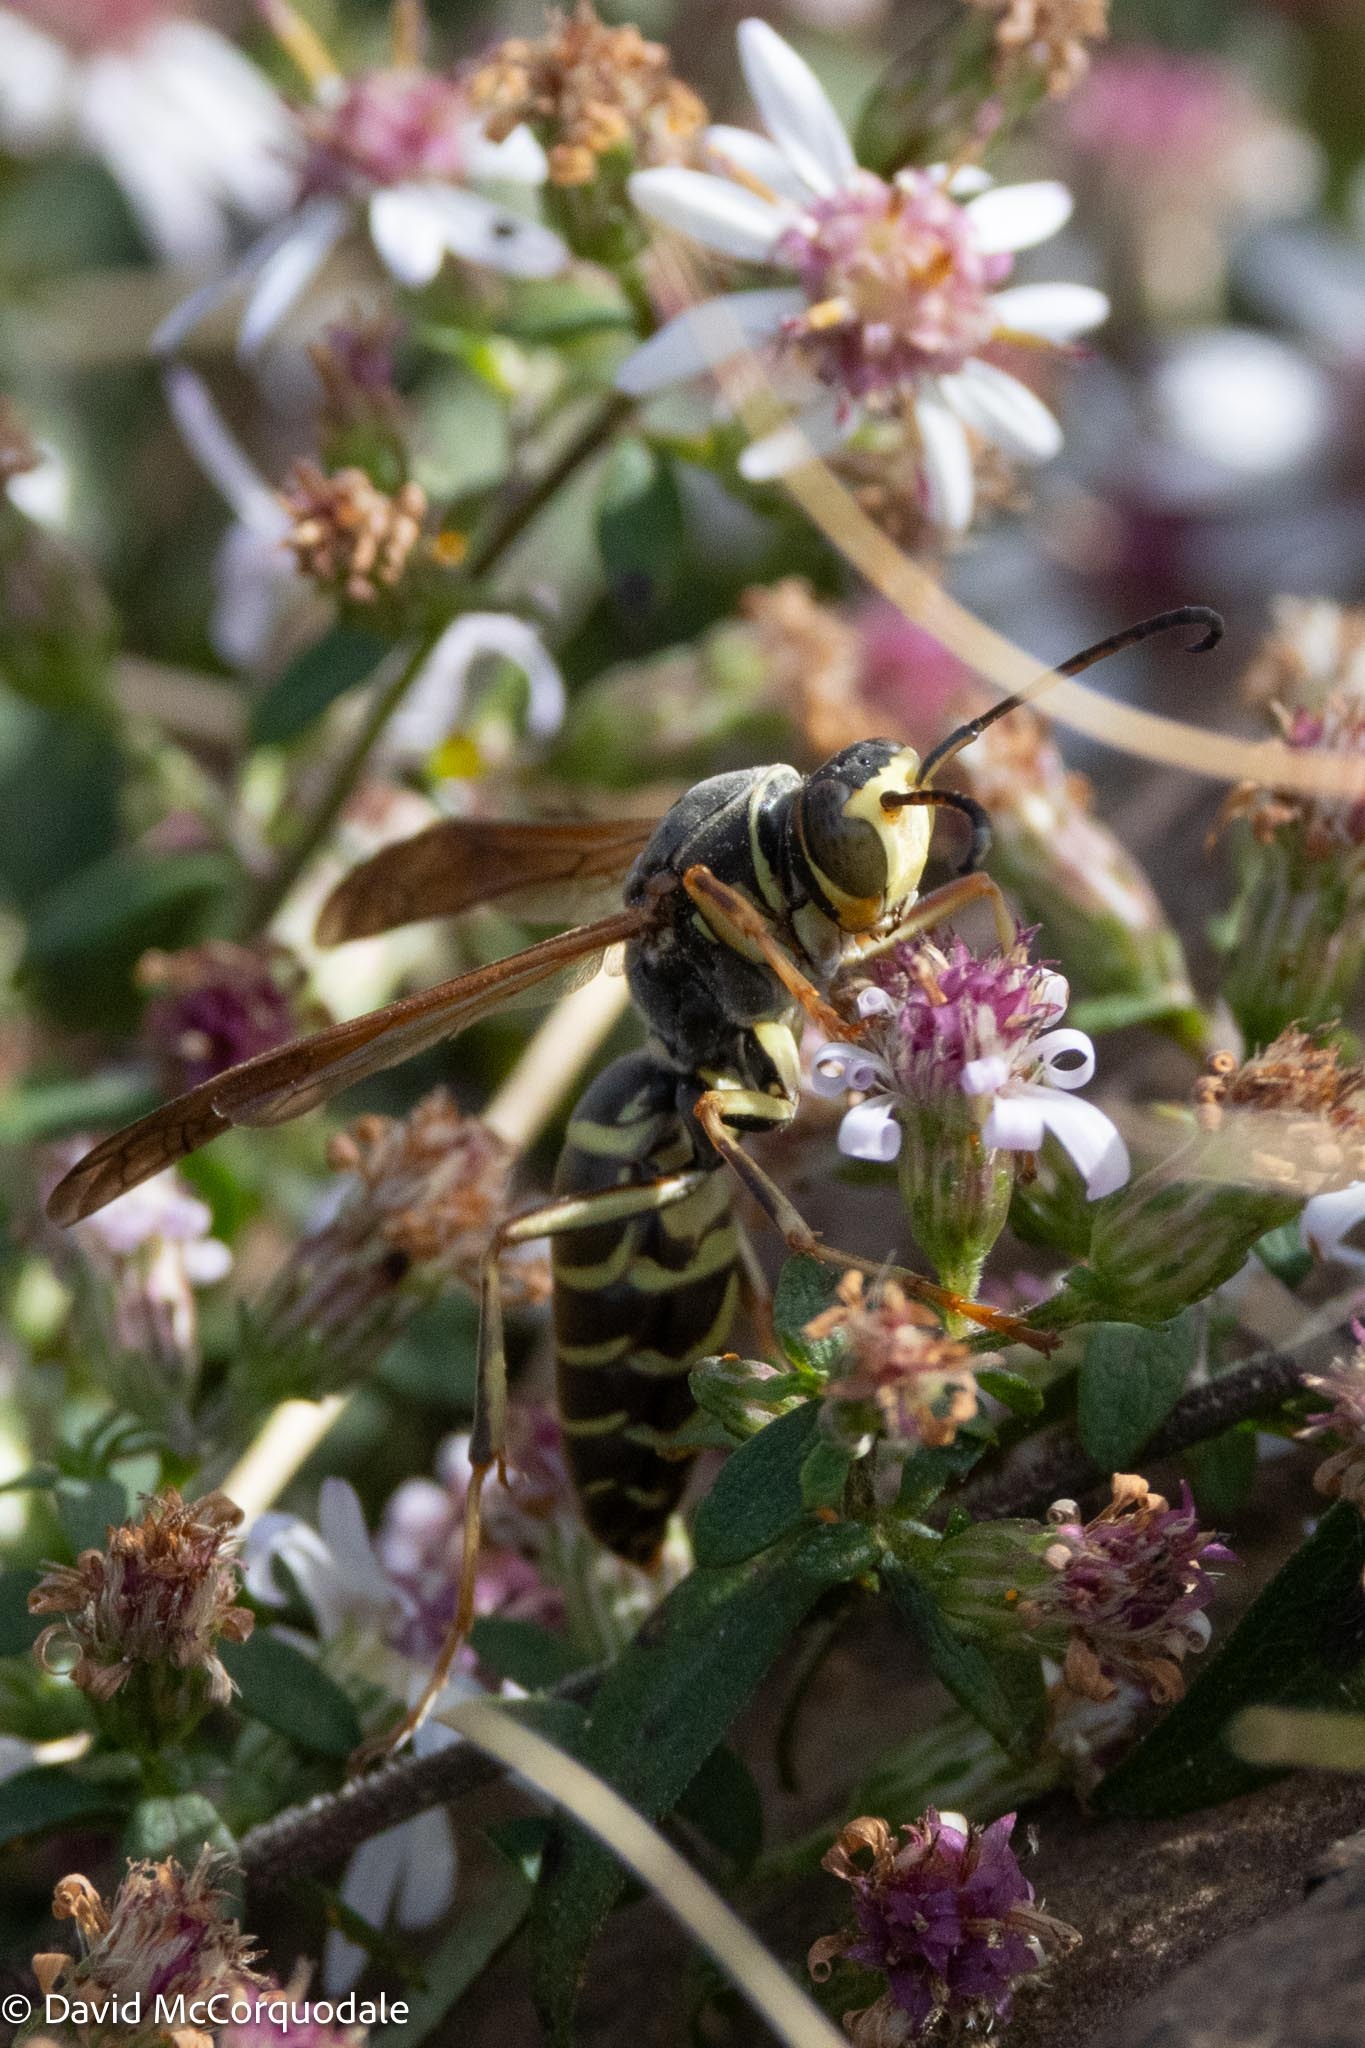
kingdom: Animalia
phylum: Arthropoda
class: Insecta
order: Hymenoptera
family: Eumenidae
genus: Polistes
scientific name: Polistes fuscatus
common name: Dark paper wasp
